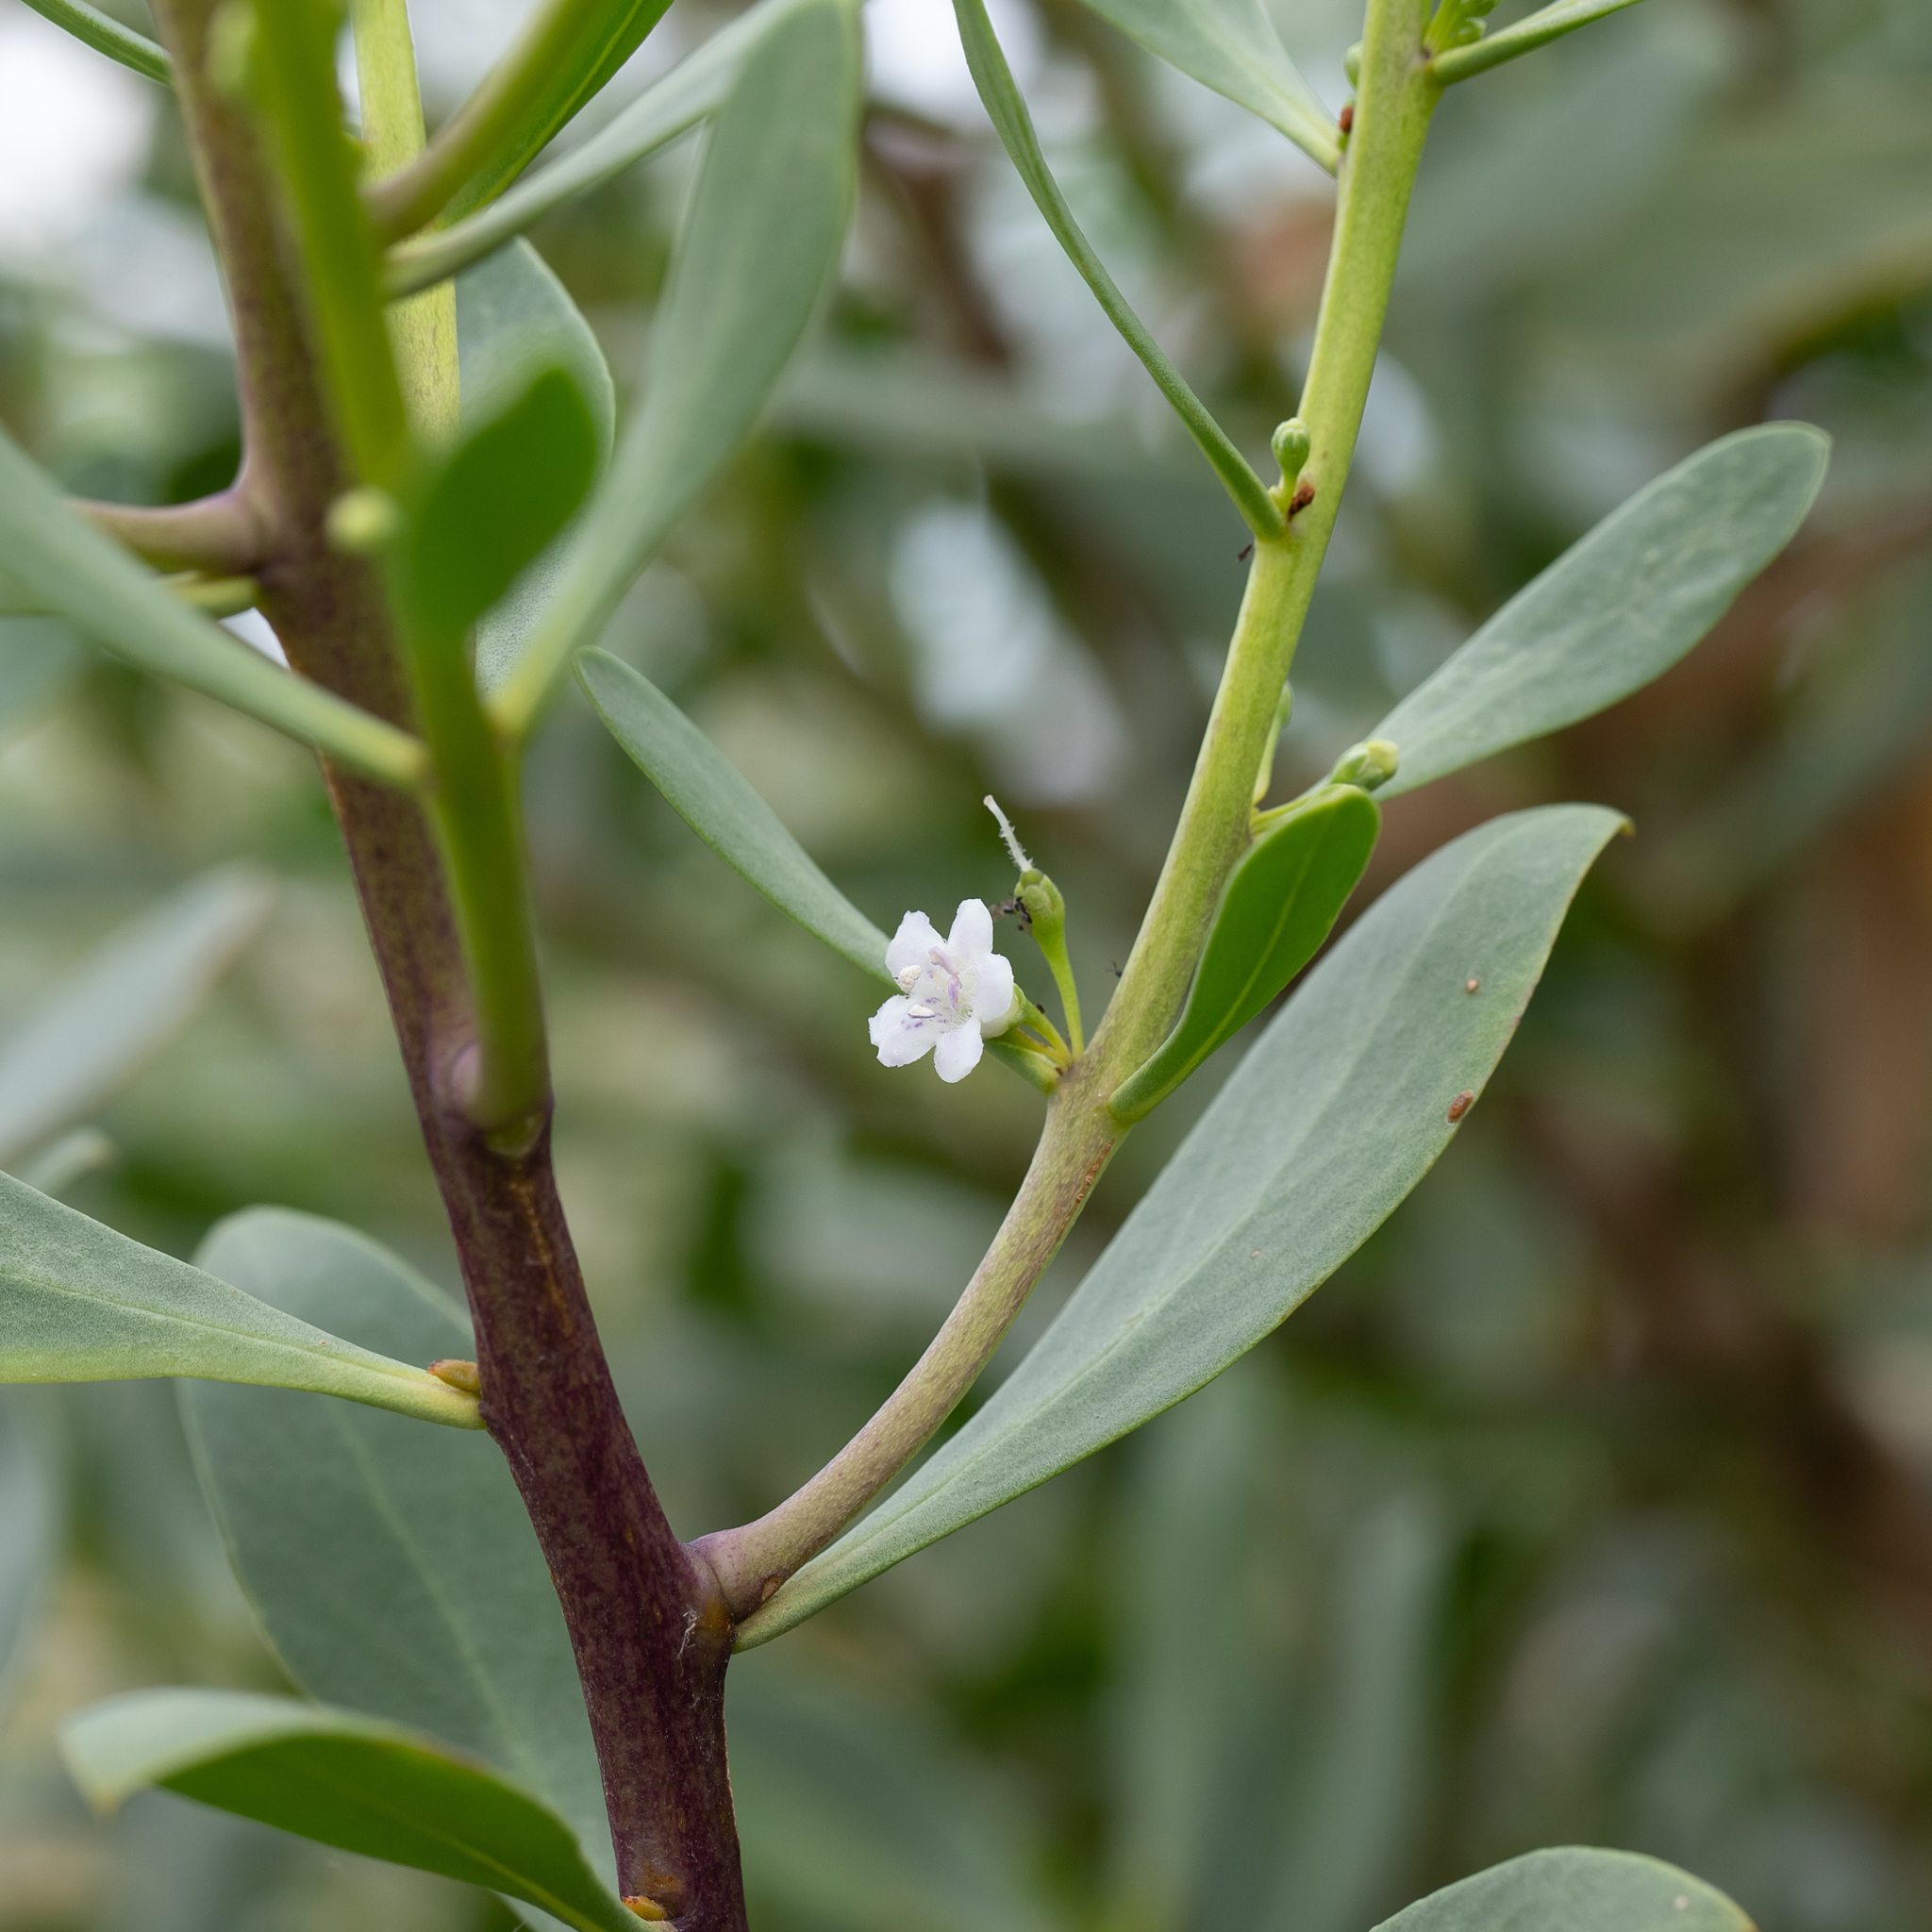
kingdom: Plantae
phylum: Tracheophyta
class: Magnoliopsida
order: Lamiales
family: Scrophulariaceae
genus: Myoporum
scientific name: Myoporum insulare
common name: Common boobialla
